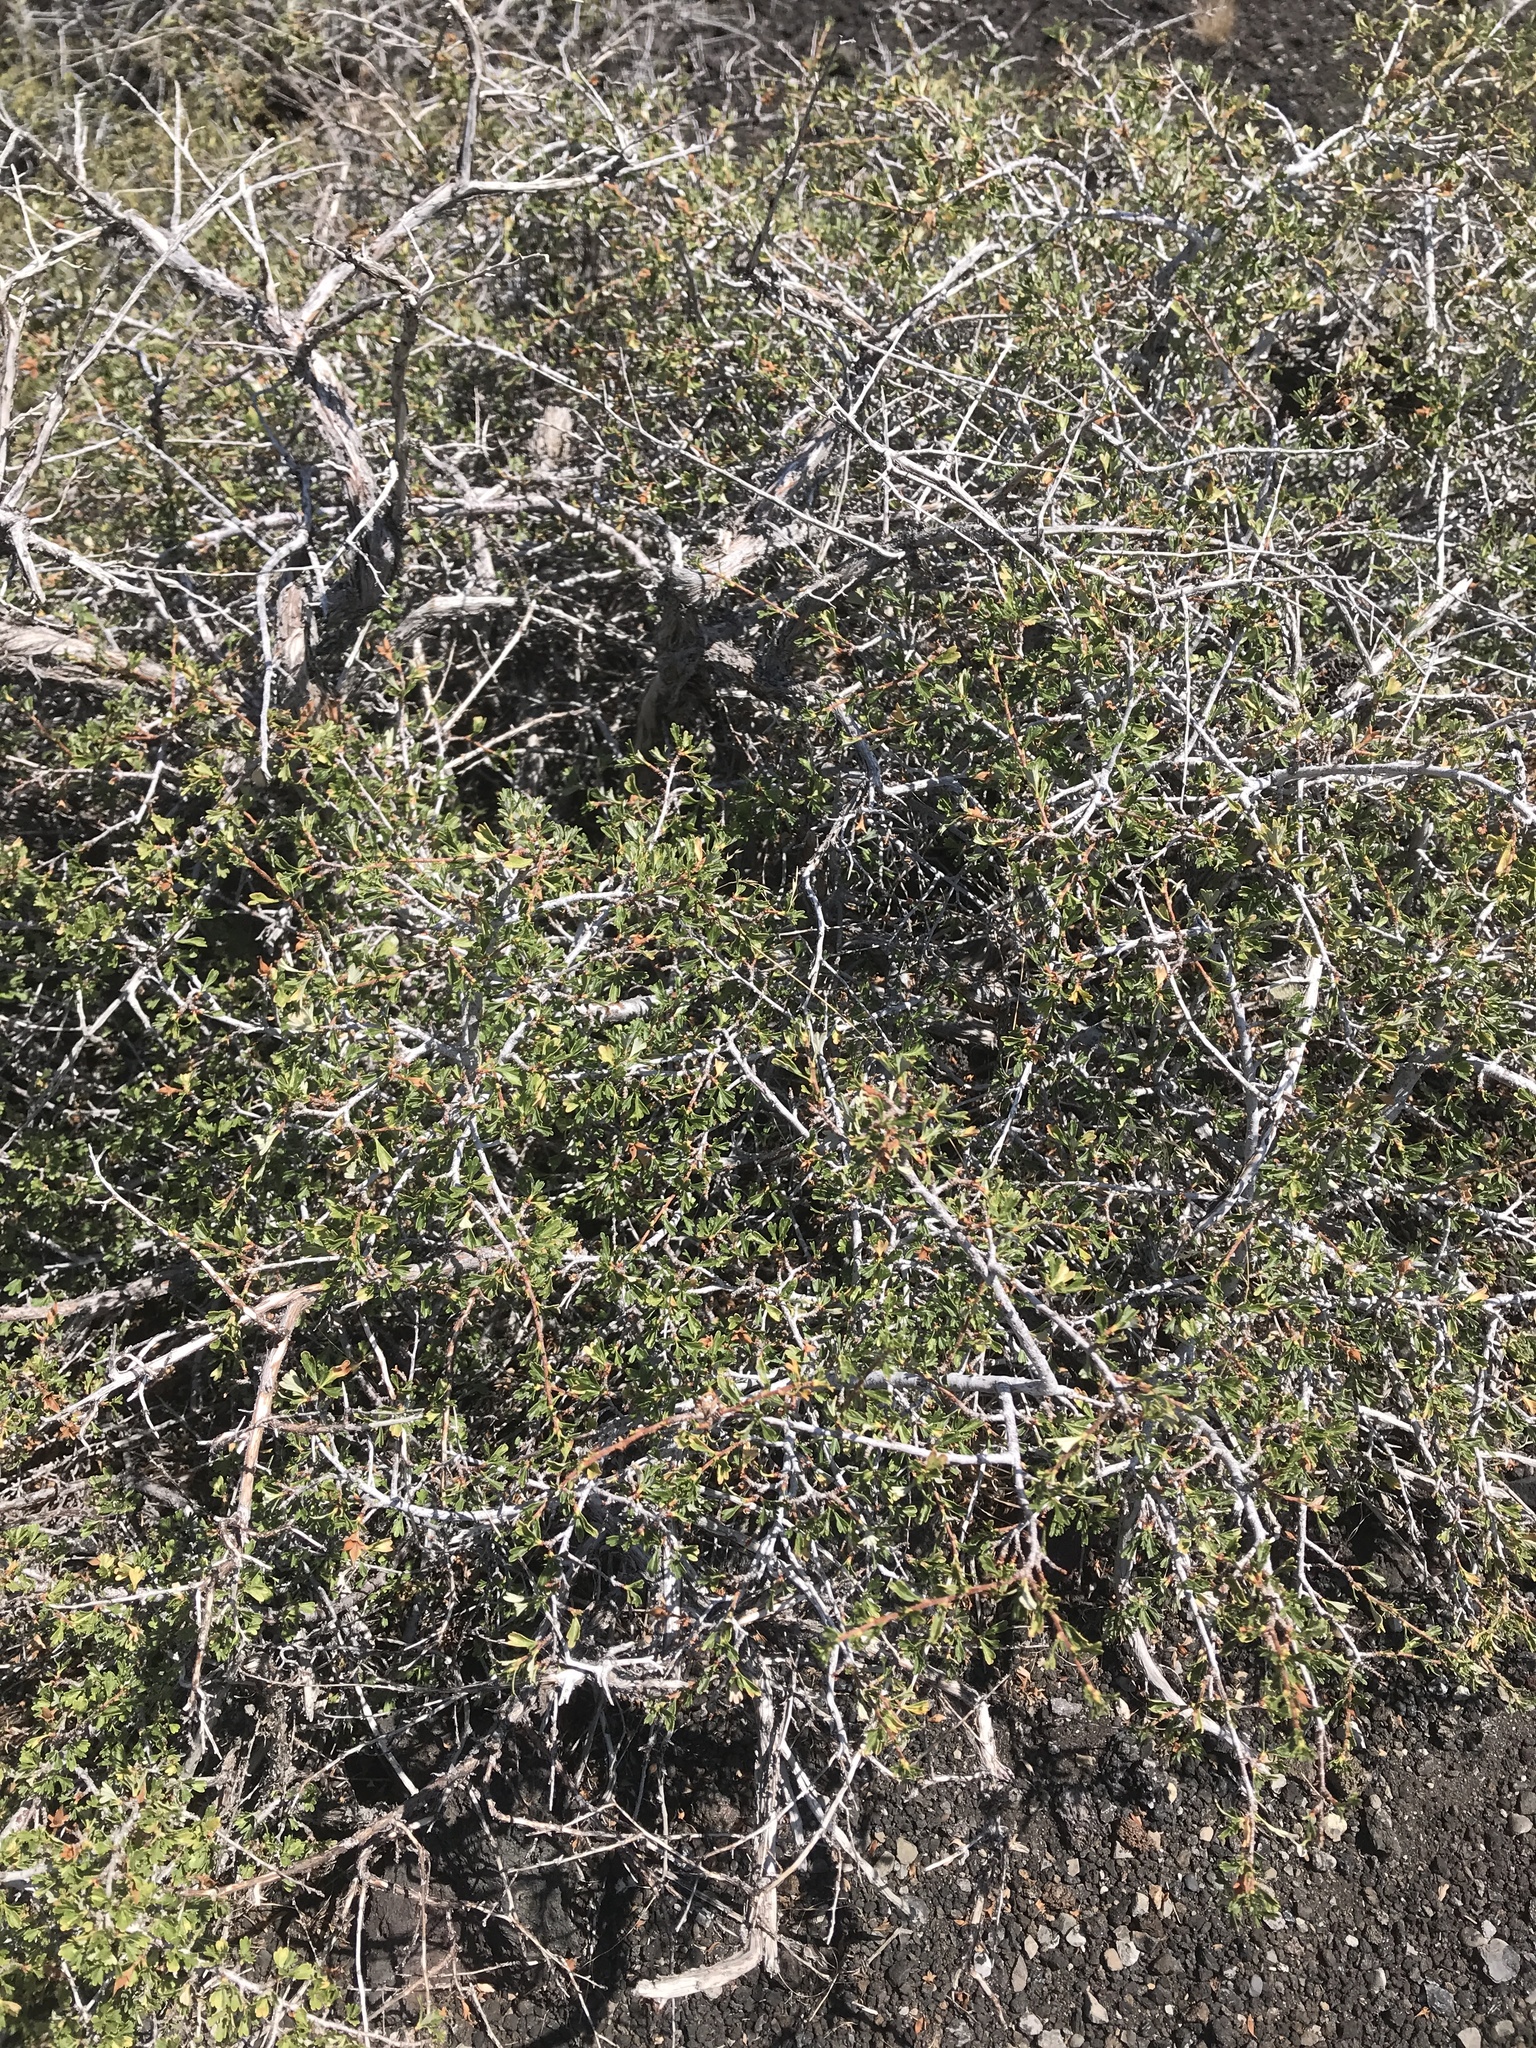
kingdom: Plantae
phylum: Tracheophyta
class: Magnoliopsida
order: Rosales
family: Rosaceae
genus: Purshia
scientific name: Purshia tridentata
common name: Antelope bitterbrush
